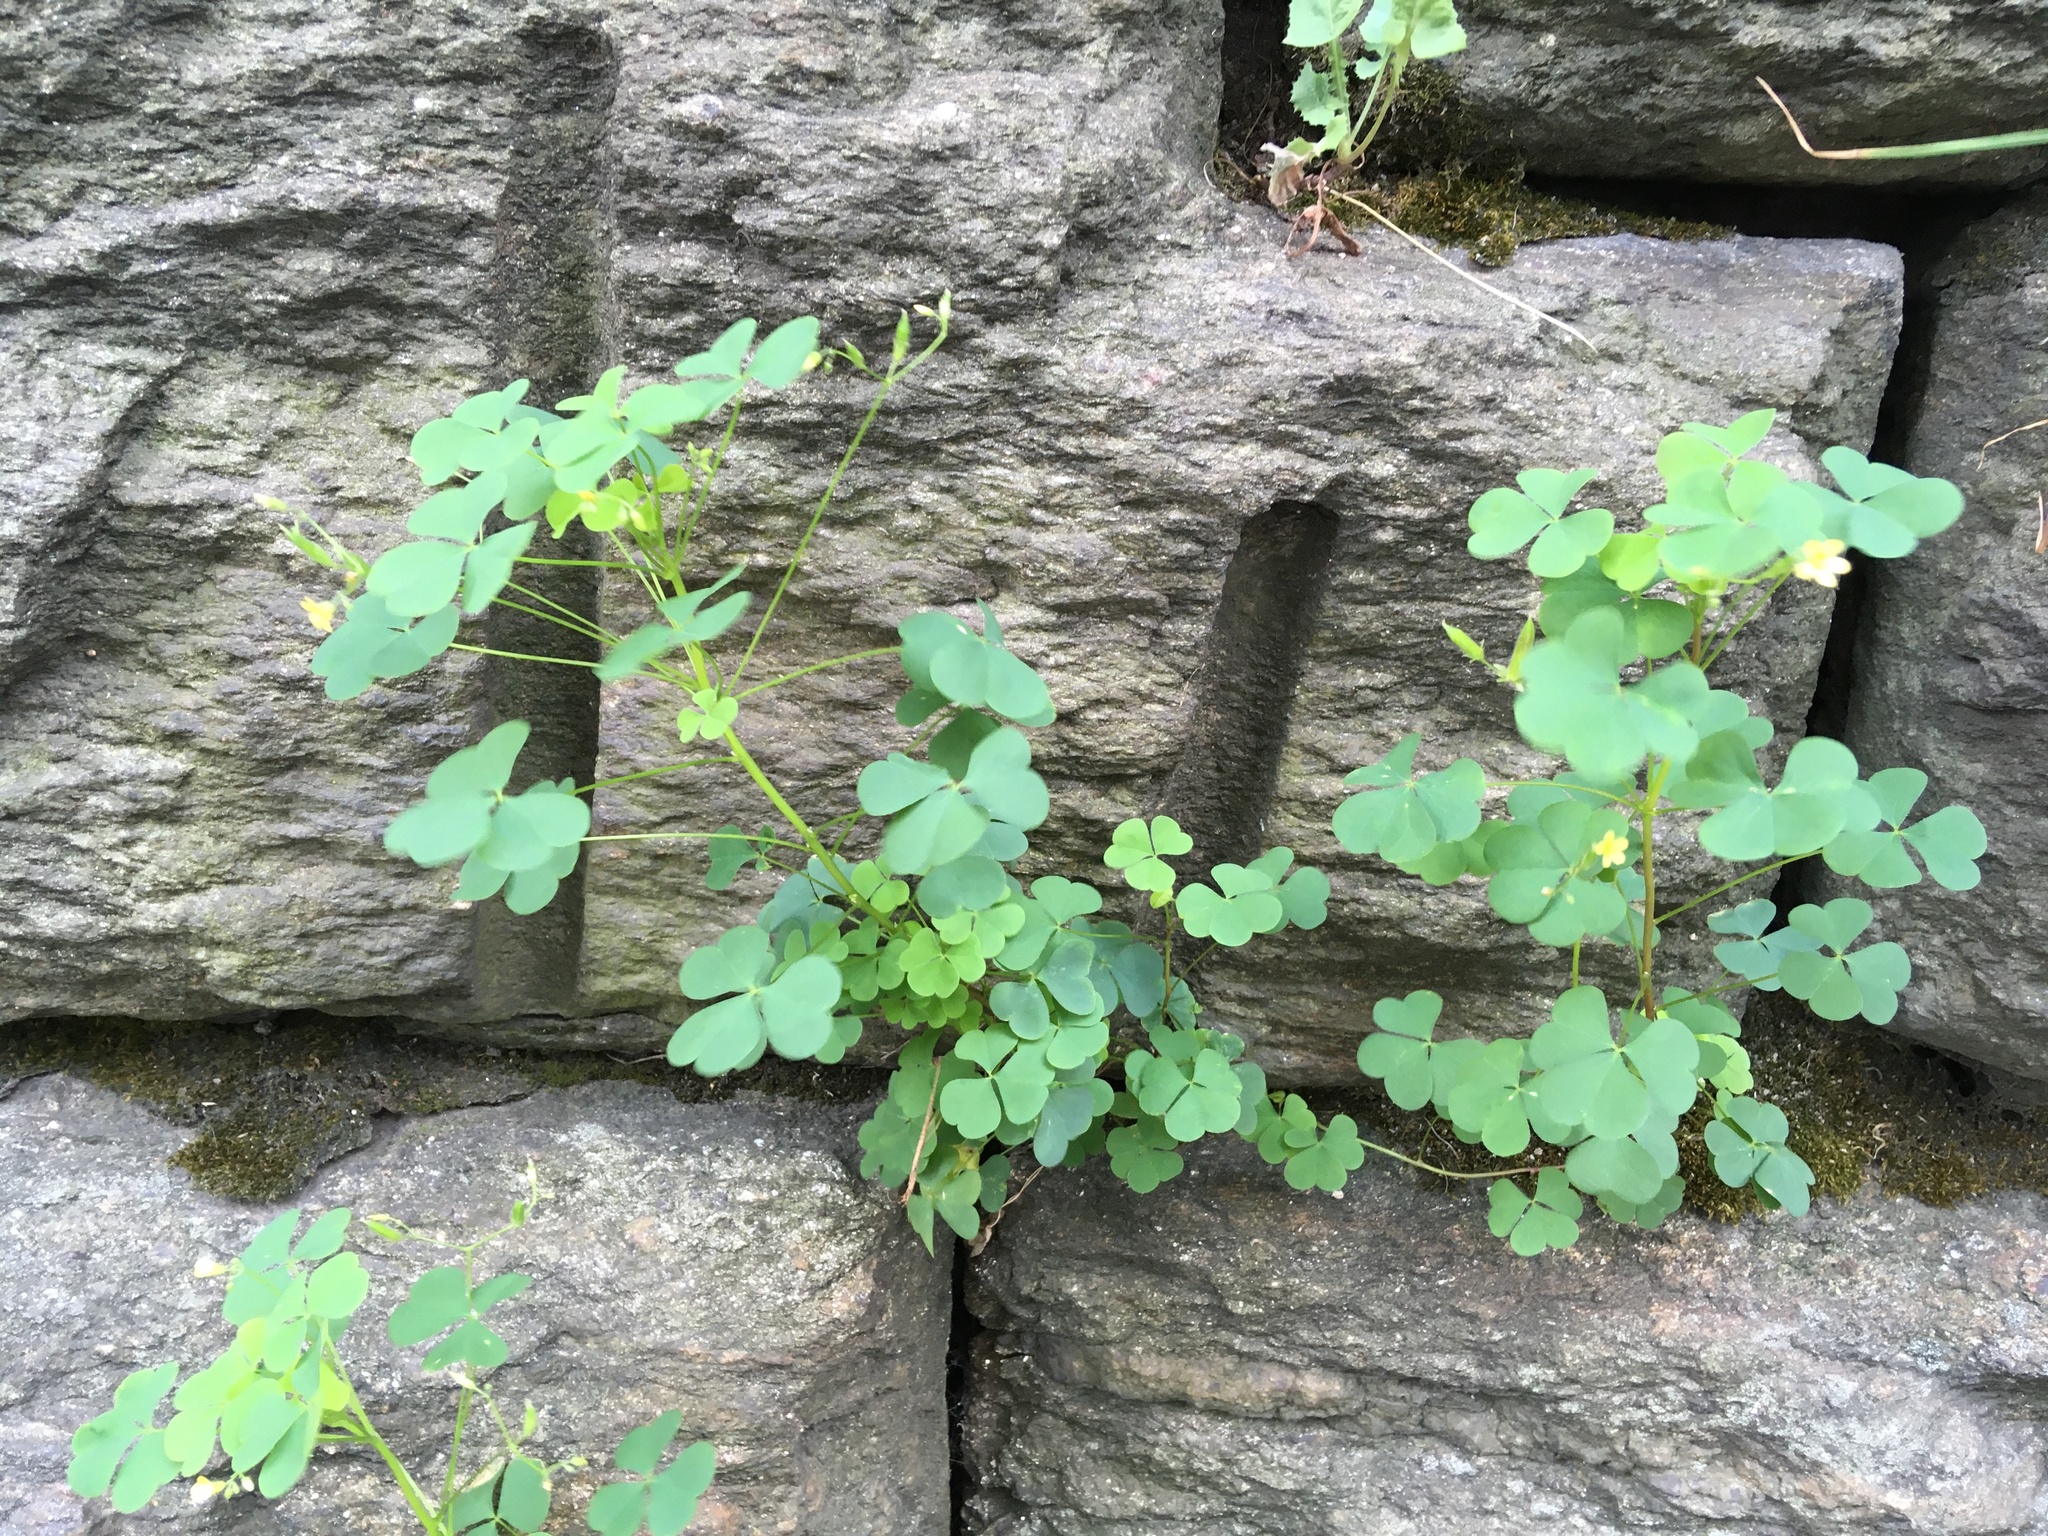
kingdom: Plantae
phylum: Tracheophyta
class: Magnoliopsida
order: Oxalidales
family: Oxalidaceae
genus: Oxalis
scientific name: Oxalis corniculata
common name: Procumbent yellow-sorrel
